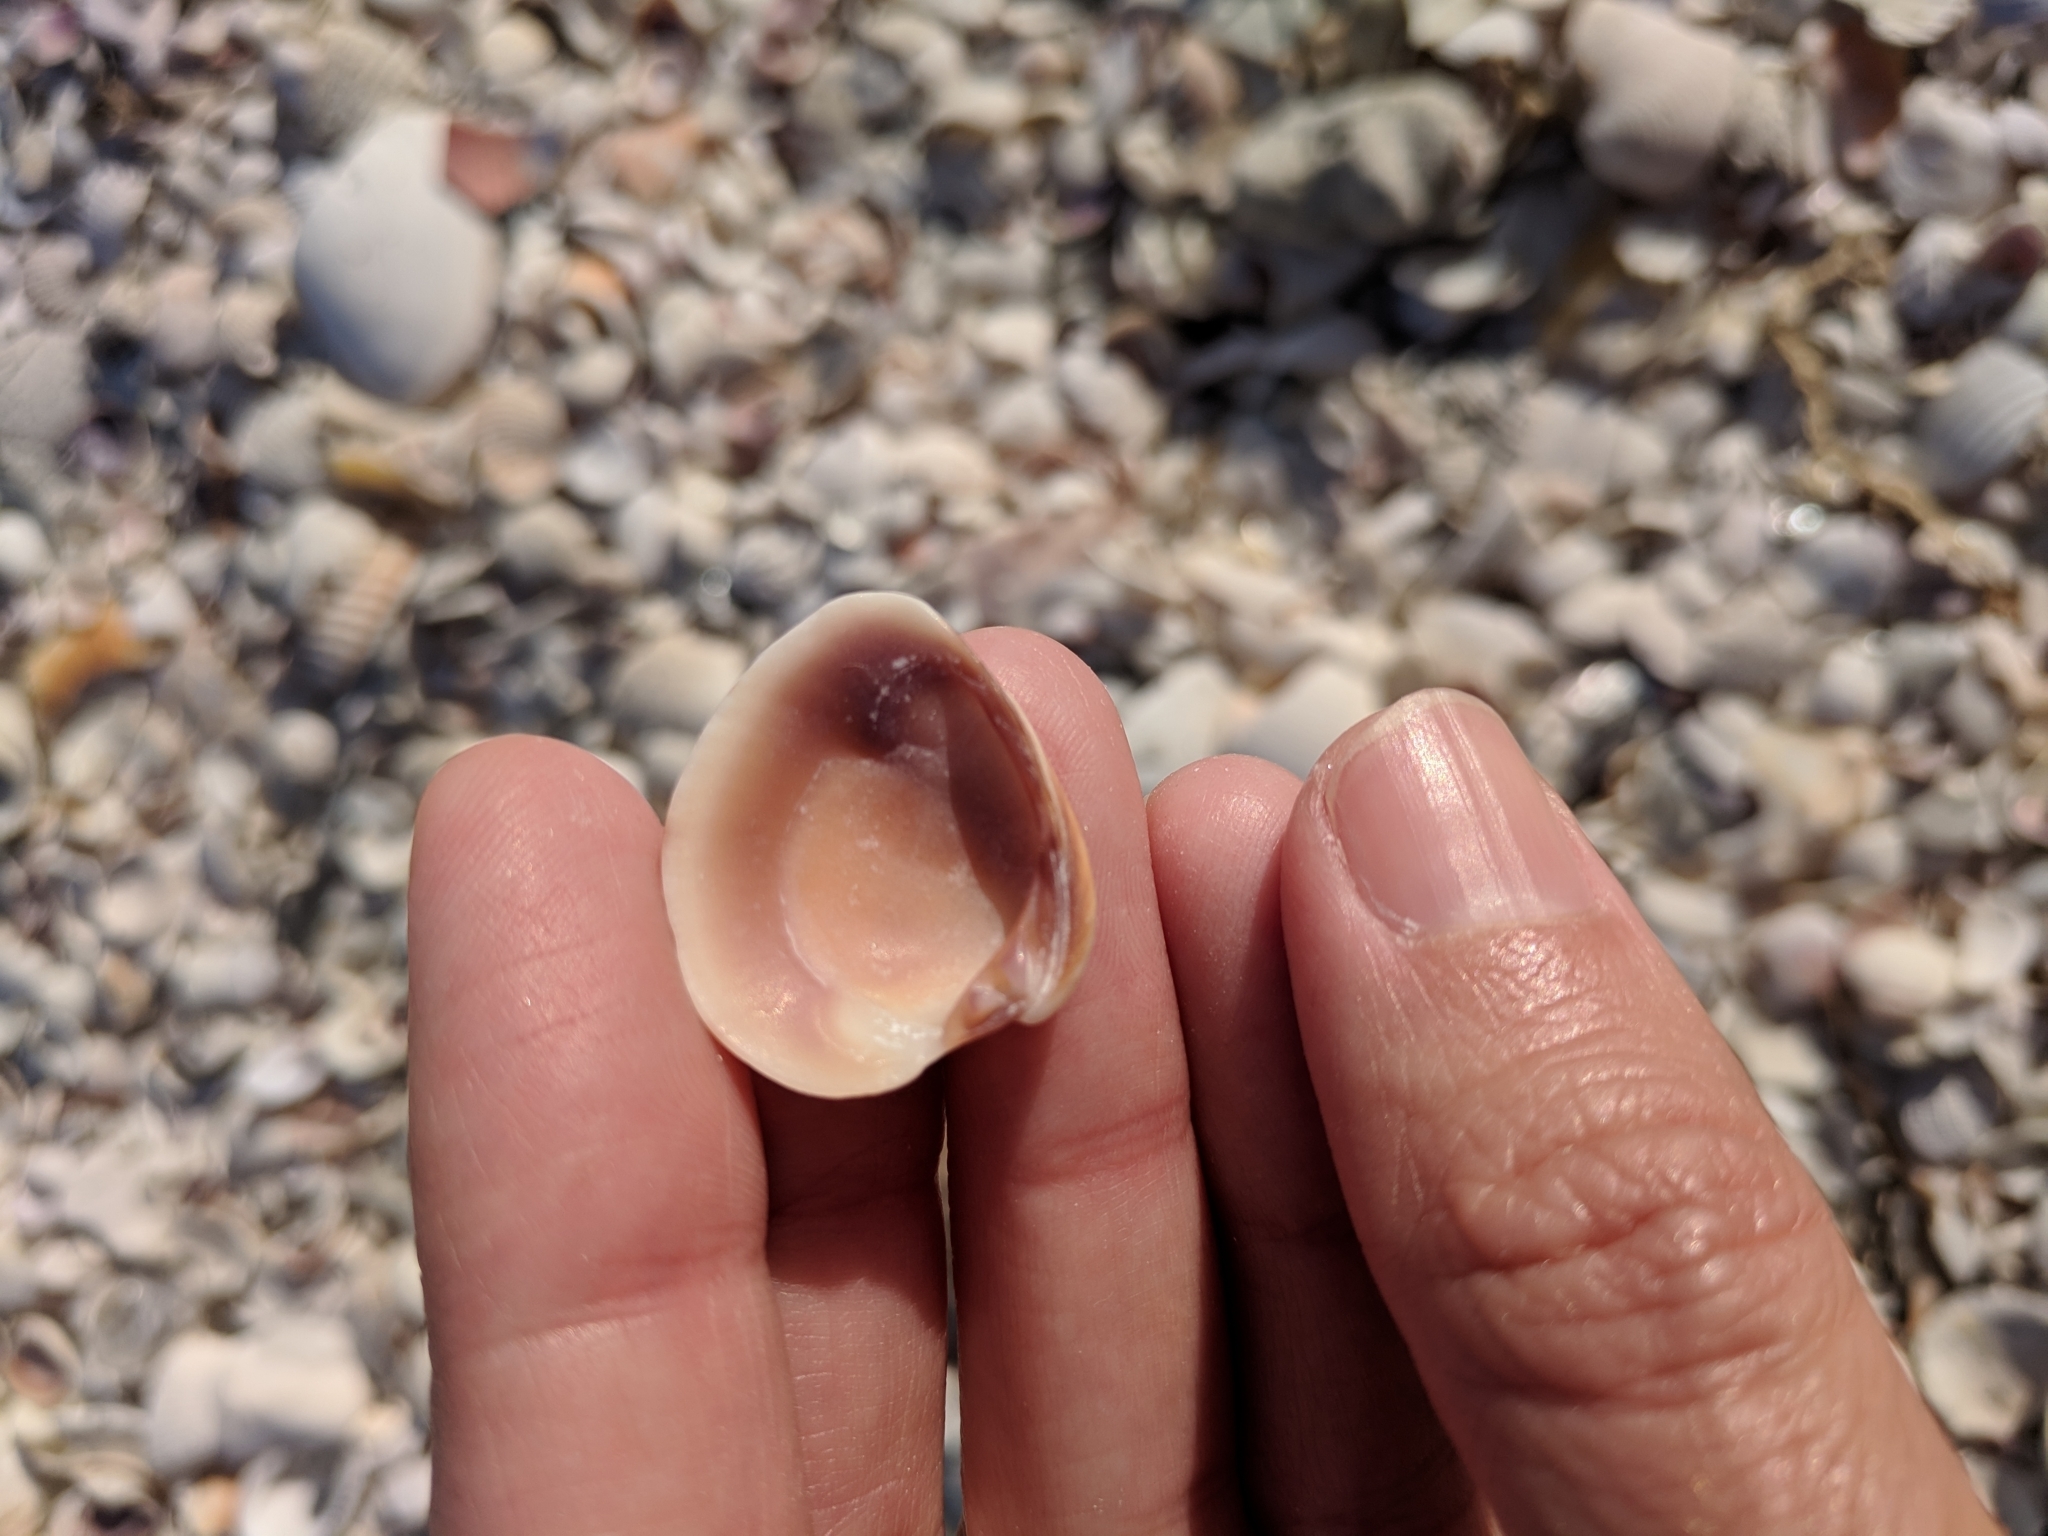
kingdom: Animalia
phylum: Mollusca
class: Bivalvia
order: Venerida
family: Veneridae
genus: Chione
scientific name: Chione elevata
